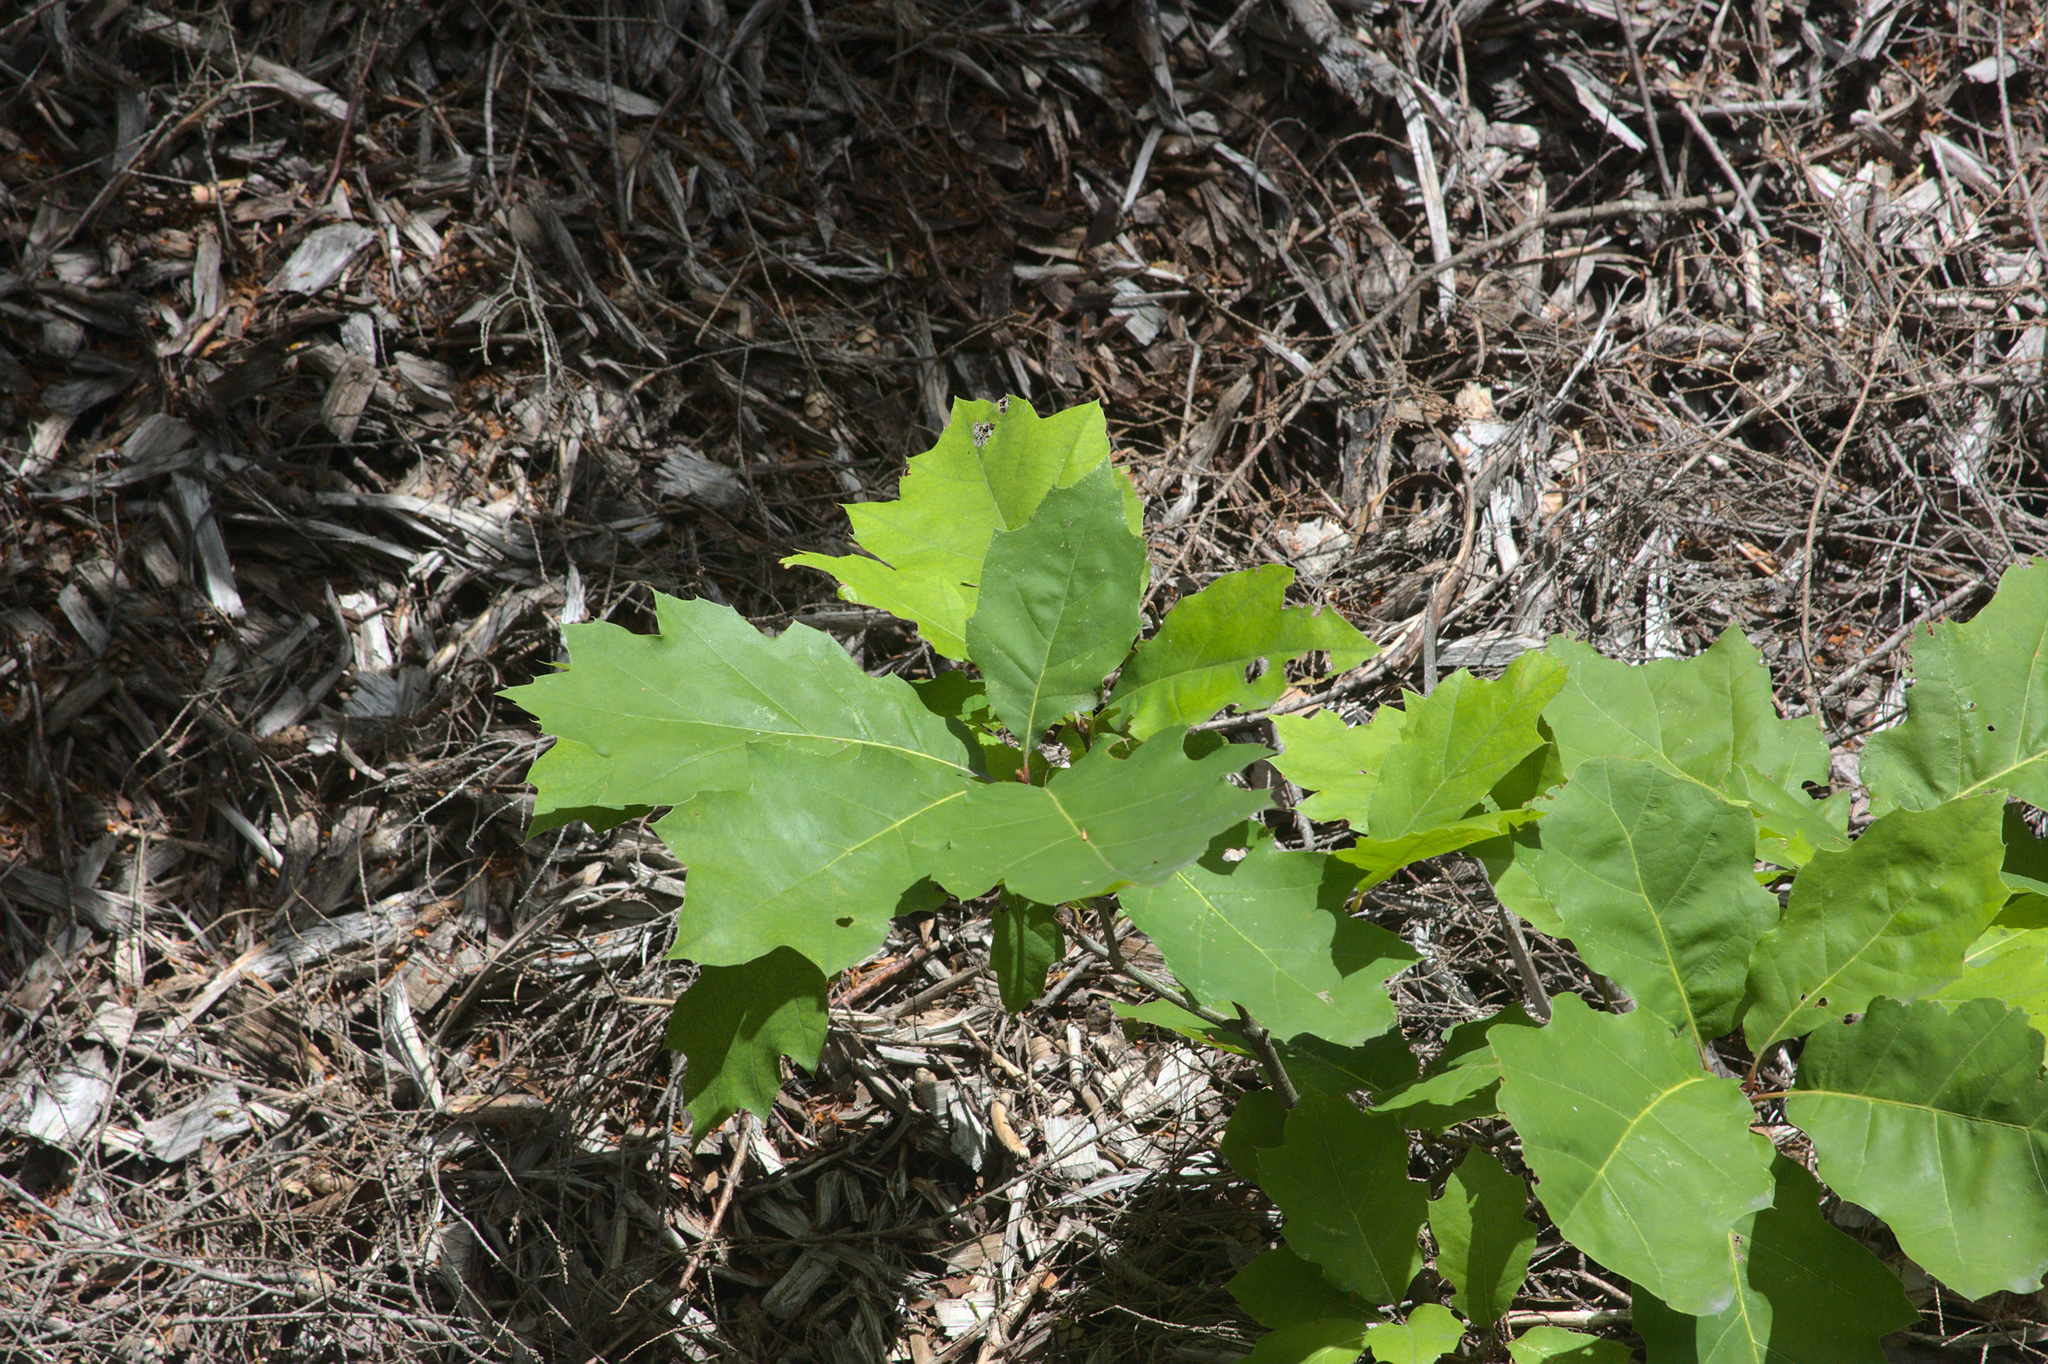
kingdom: Plantae
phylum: Tracheophyta
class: Magnoliopsida
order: Fagales
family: Fagaceae
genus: Quercus
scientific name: Quercus rubra
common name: Red oak
